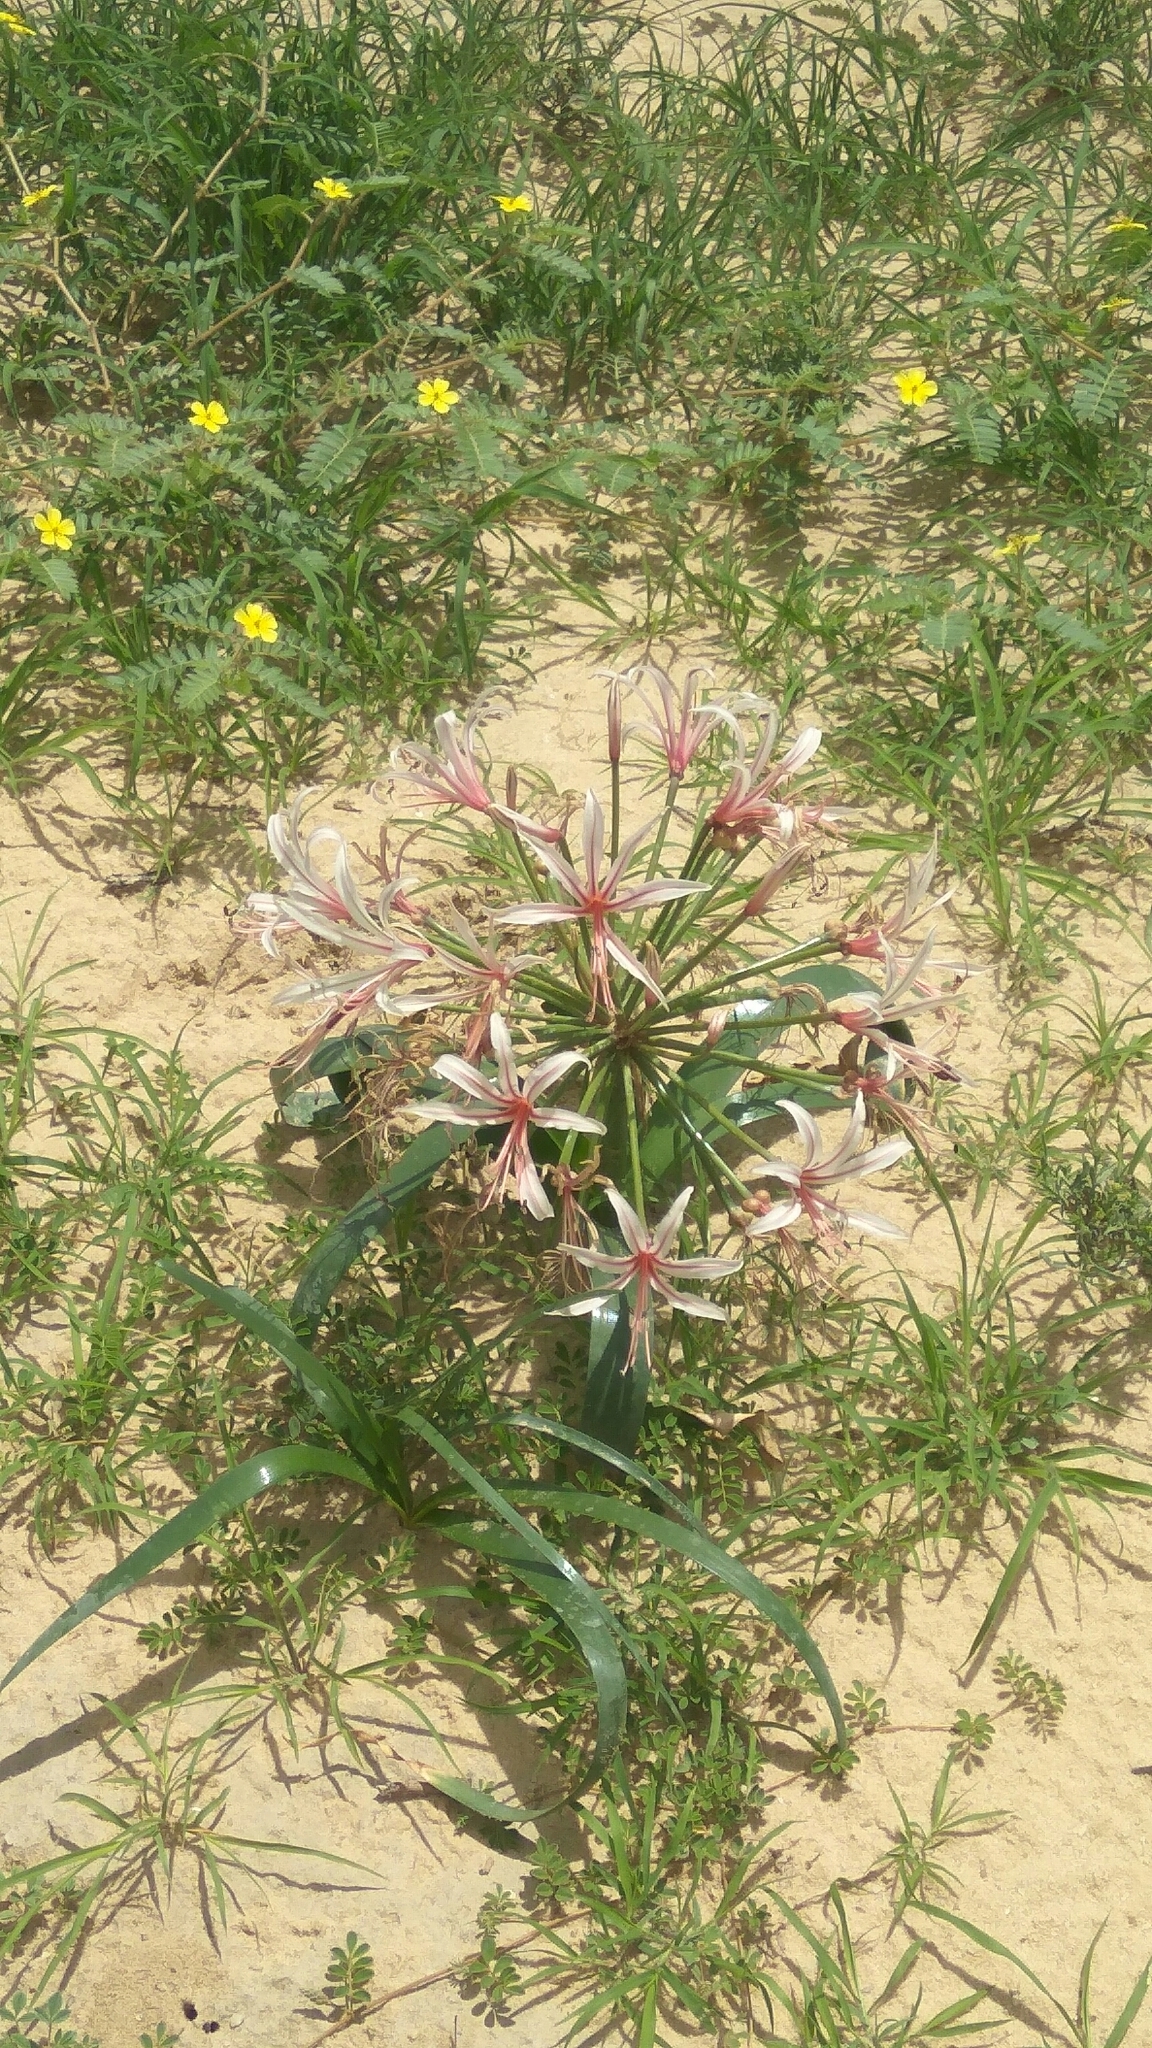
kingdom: Plantae
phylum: Tracheophyta
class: Liliopsida
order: Asparagales
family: Amaryllidaceae
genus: Nerine
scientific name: Nerine laticoma
